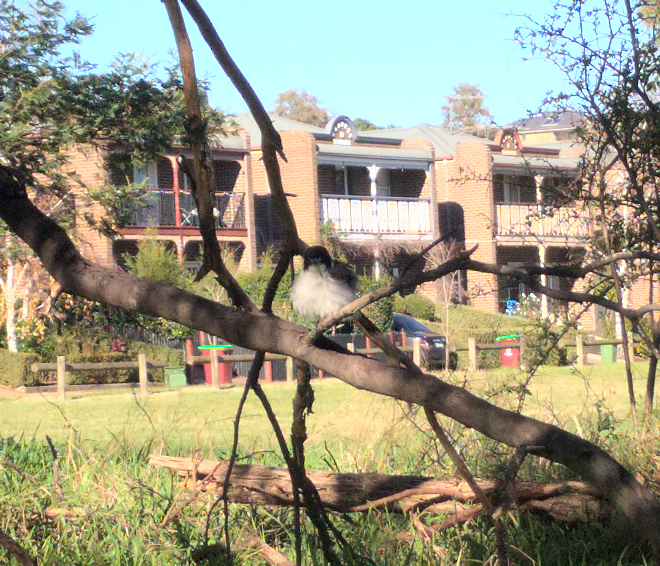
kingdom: Animalia
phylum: Chordata
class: Aves
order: Passeriformes
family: Cracticidae
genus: Cracticus
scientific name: Cracticus torquatus
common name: Grey butcherbird
